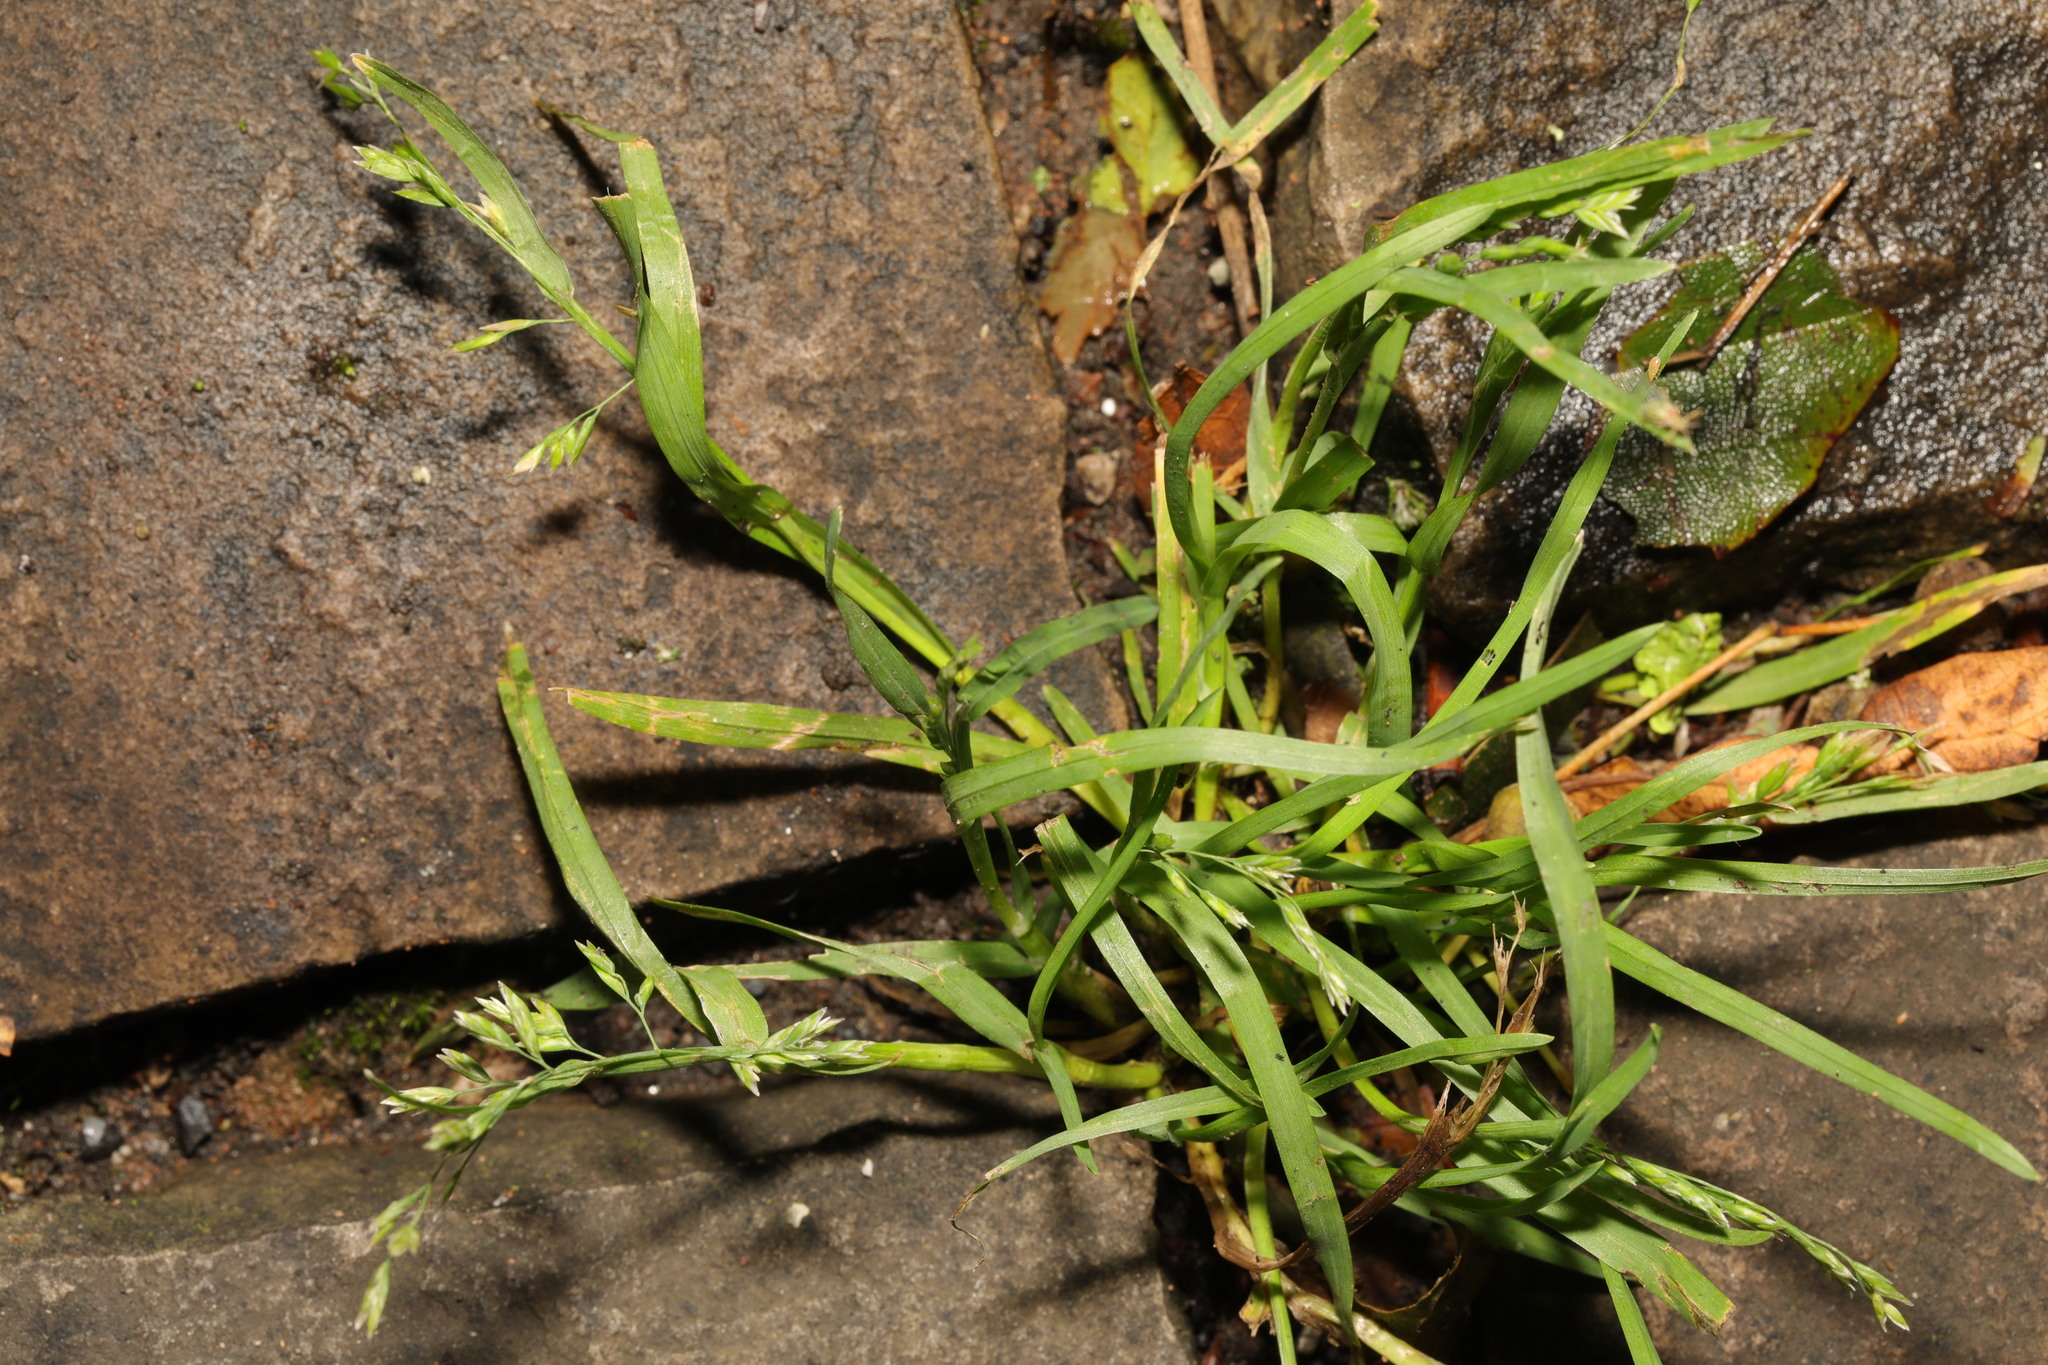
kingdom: Plantae
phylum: Tracheophyta
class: Liliopsida
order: Poales
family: Poaceae
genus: Poa
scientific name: Poa annua
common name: Annual bluegrass
